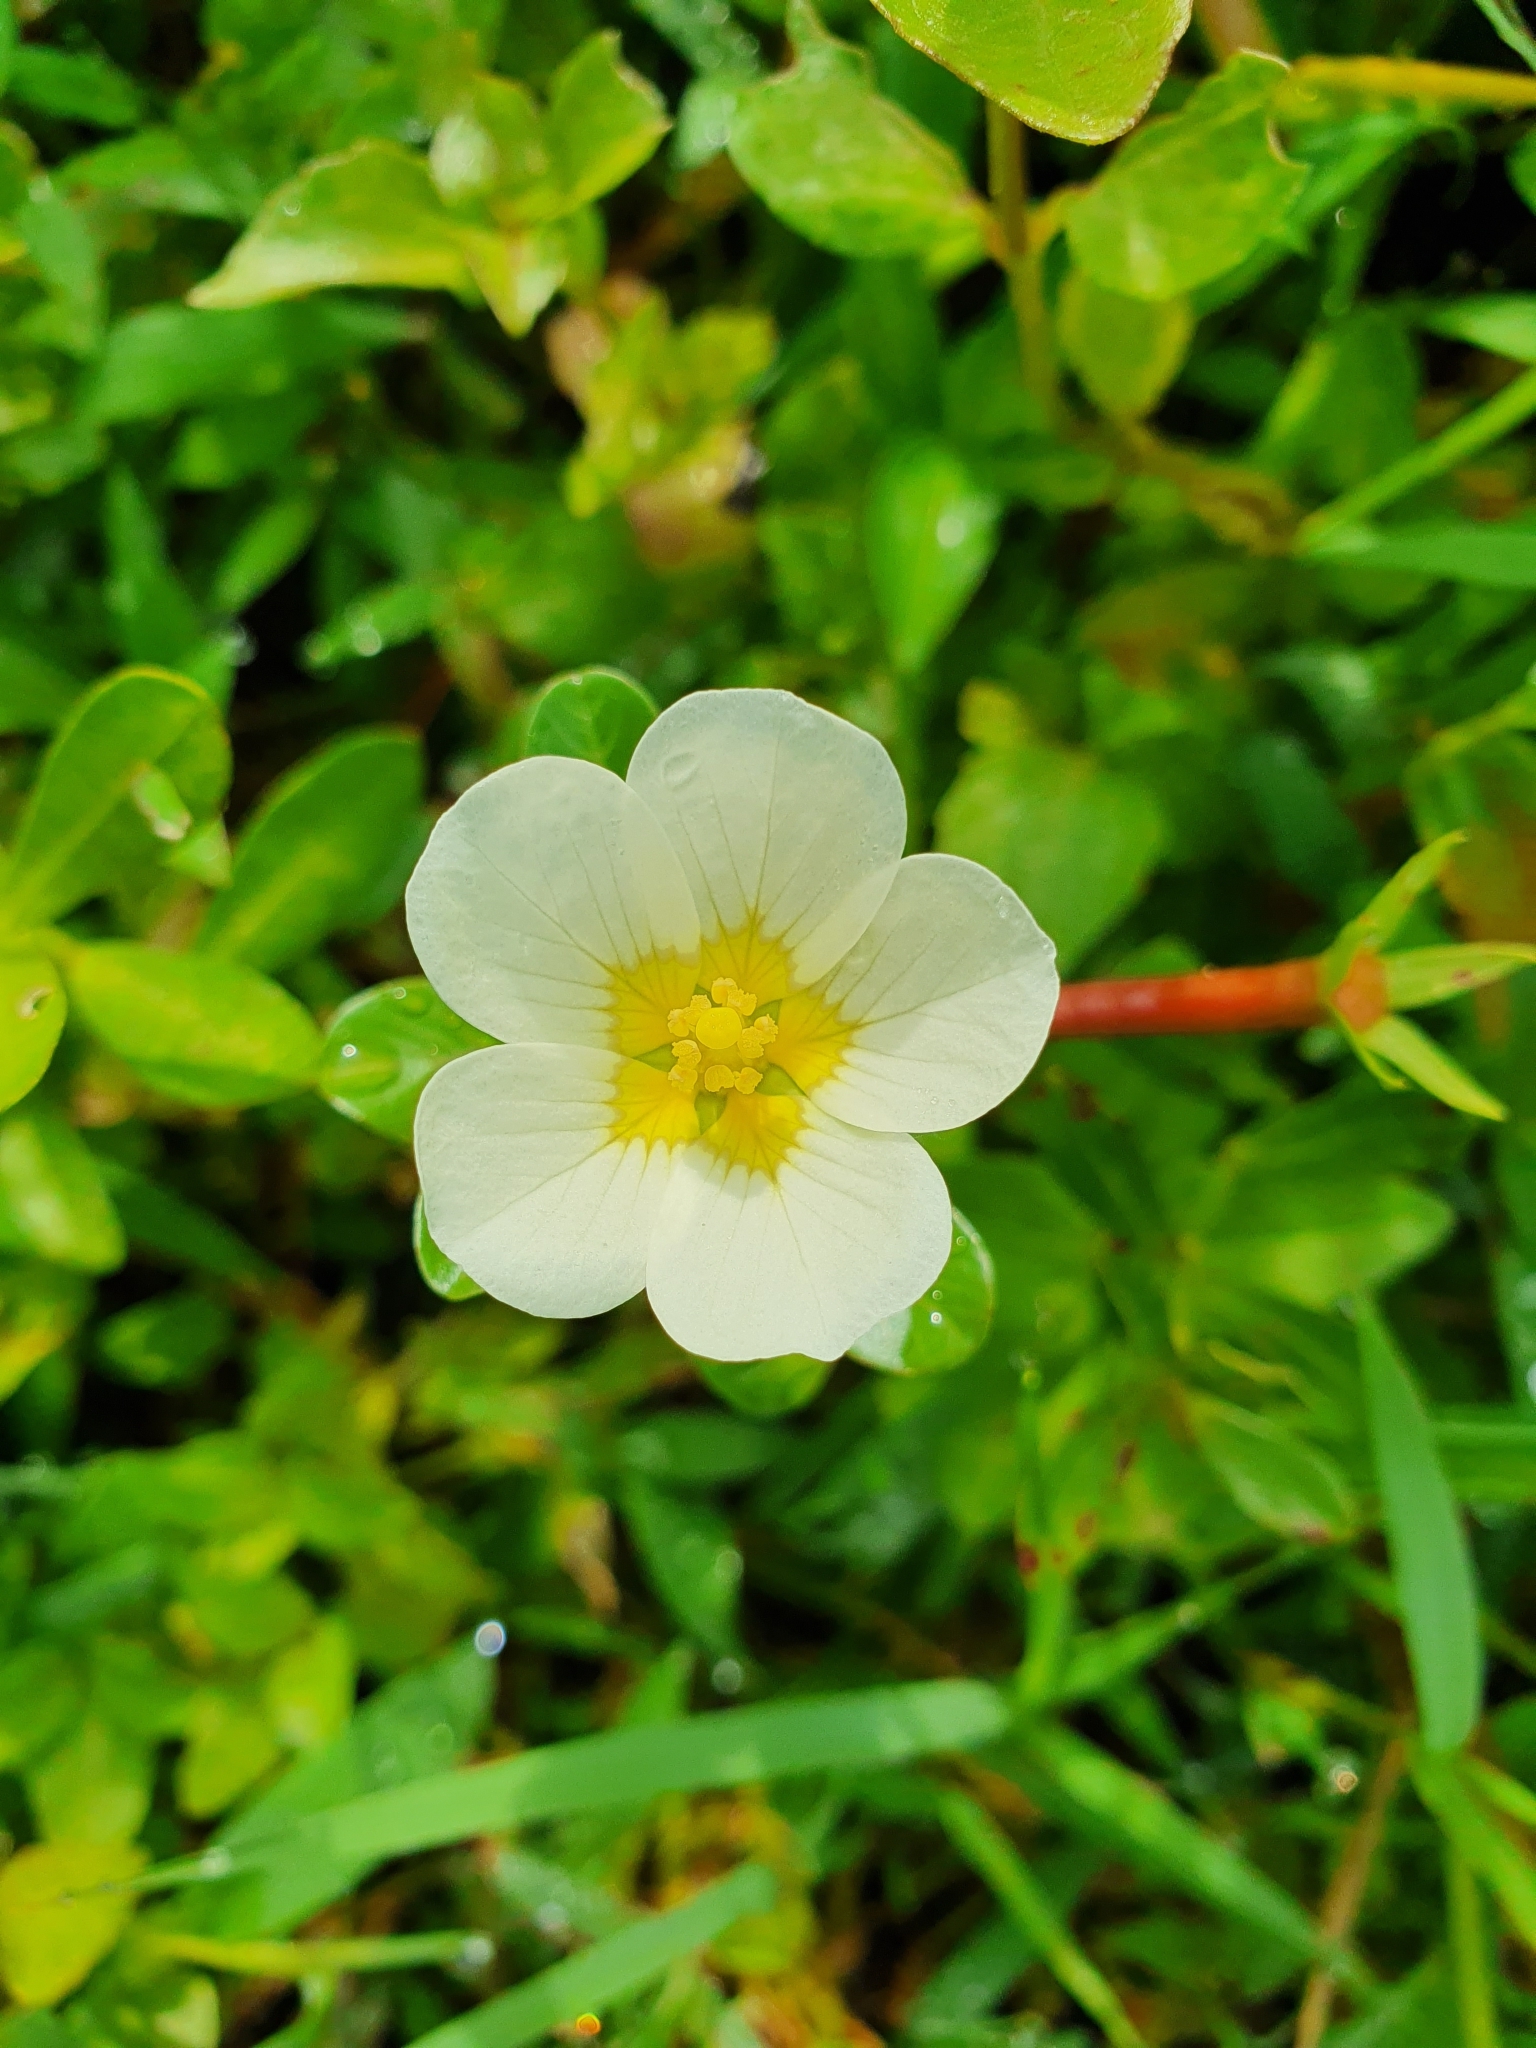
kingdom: Plantae
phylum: Tracheophyta
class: Magnoliopsida
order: Myrtales
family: Onagraceae
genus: Ludwigia
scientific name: Ludwigia adscendens
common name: Creeping water primrose
